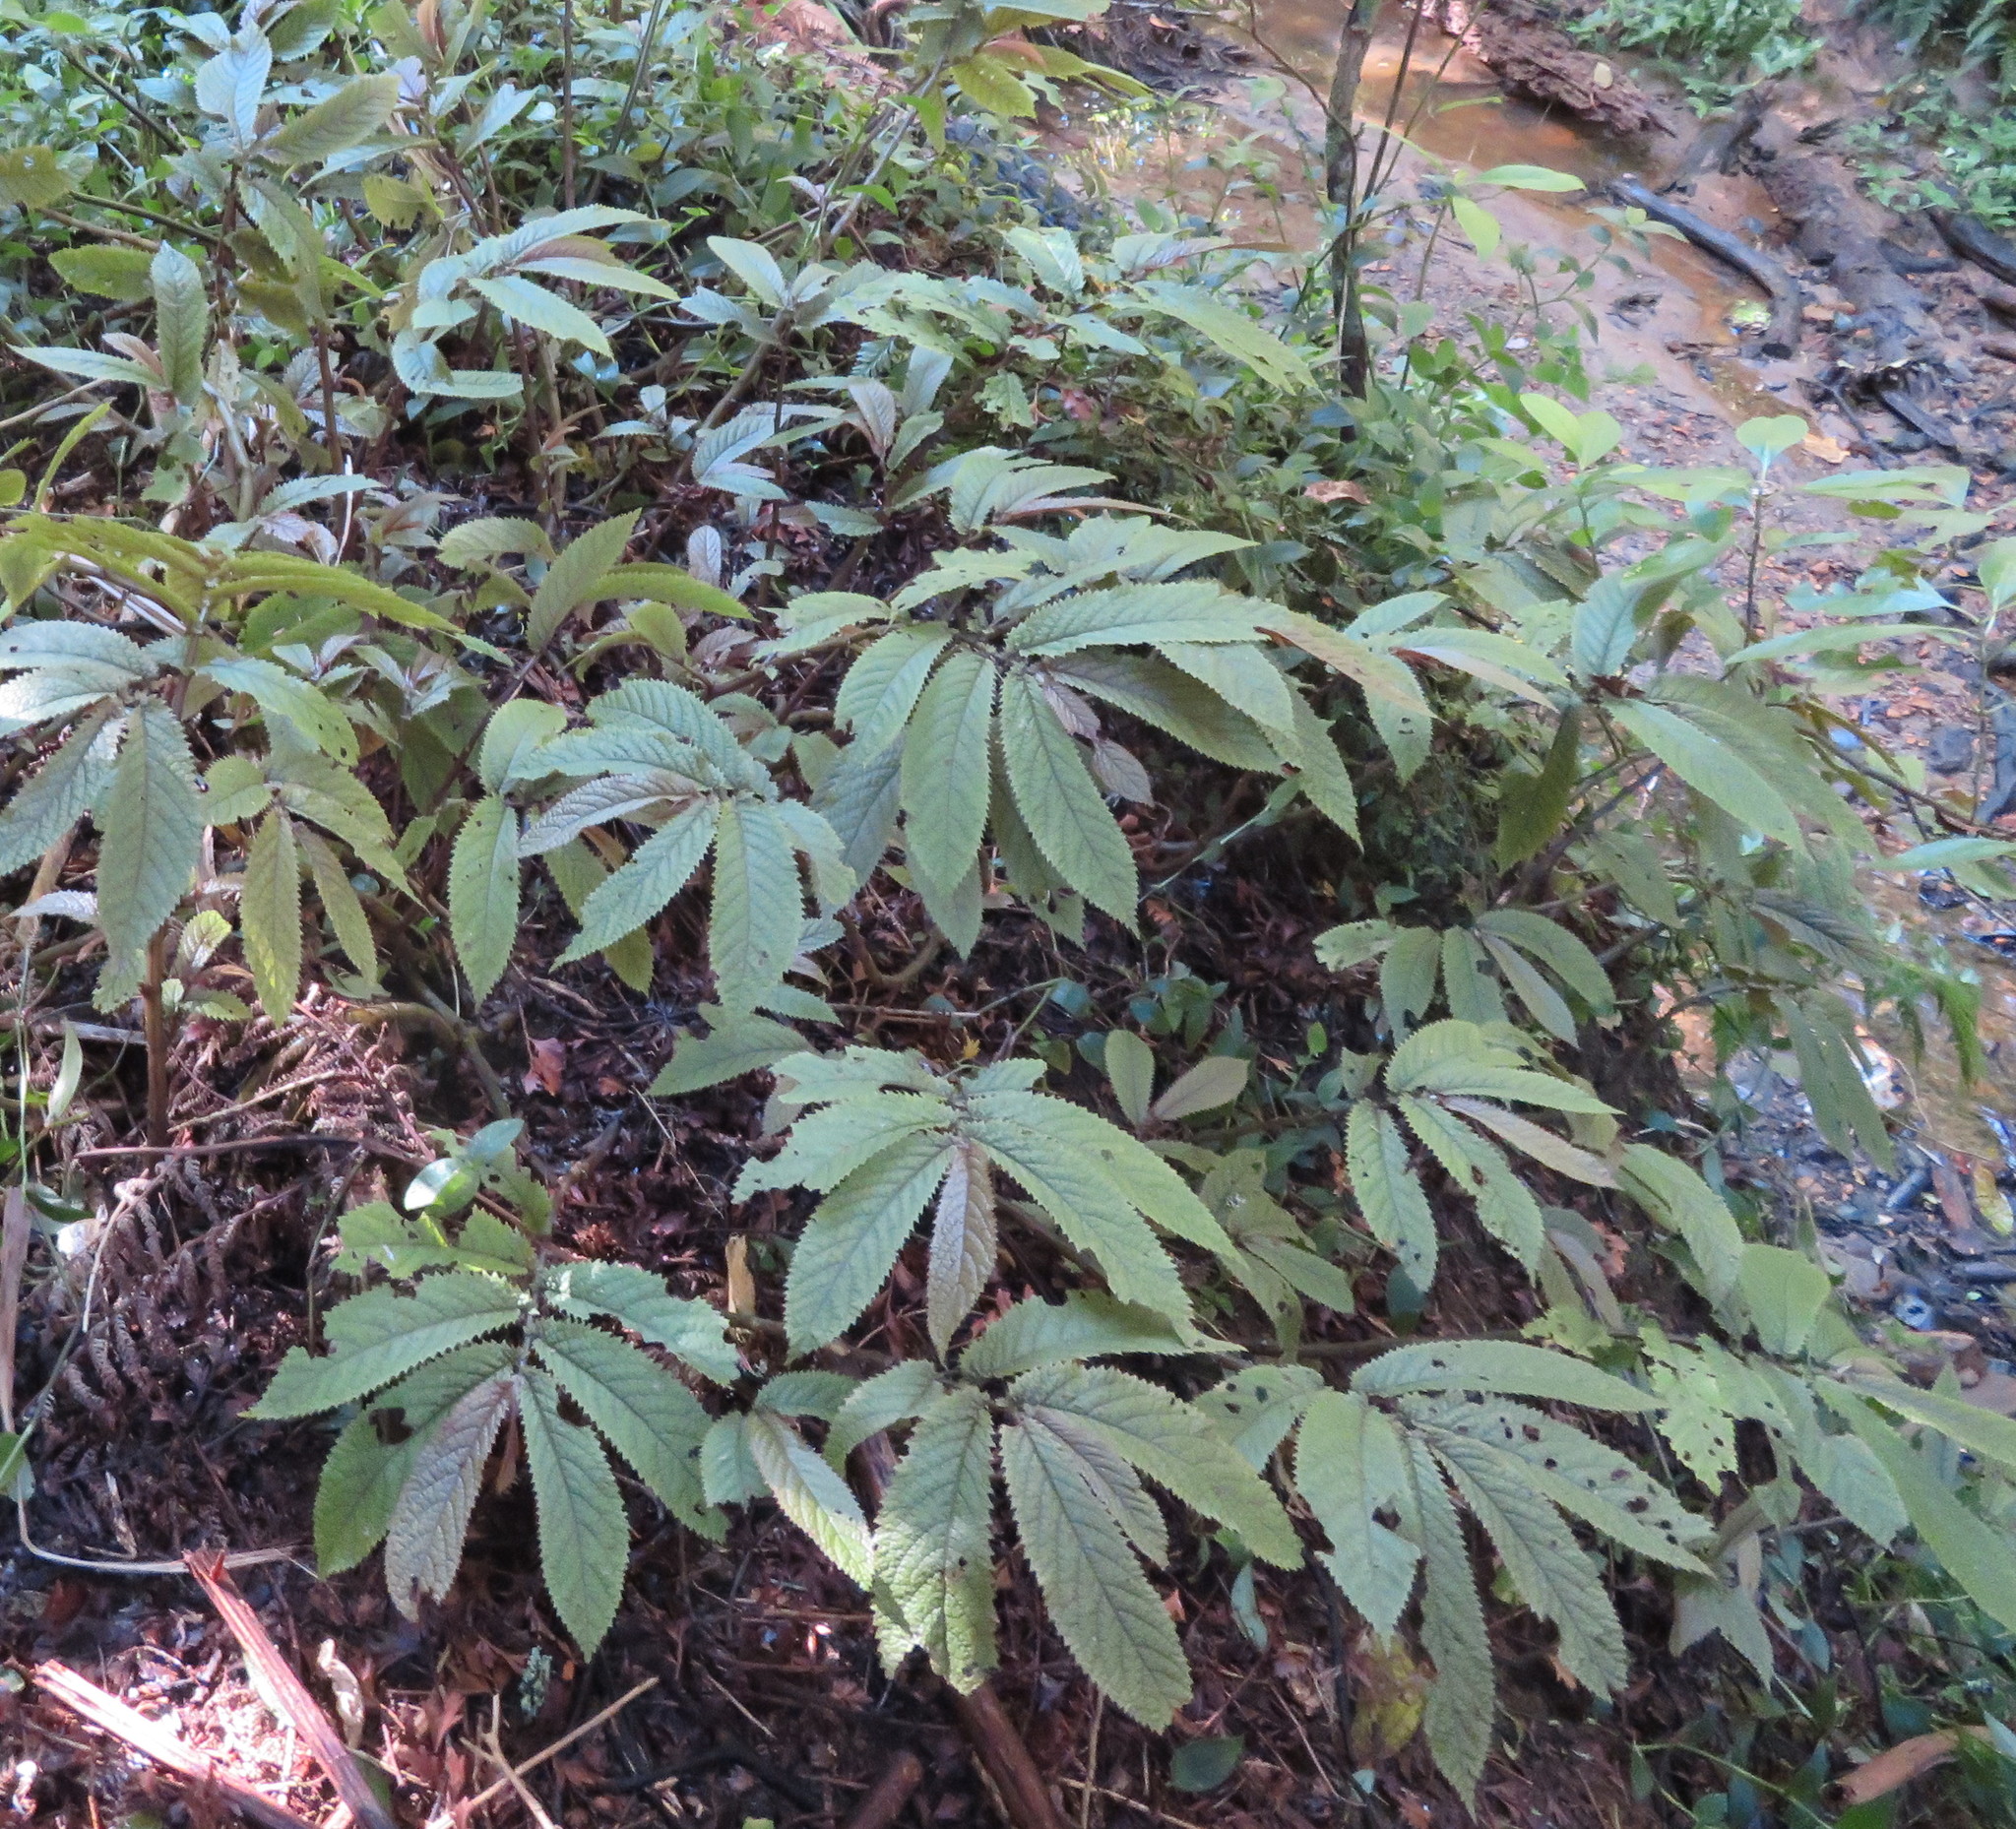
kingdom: Plantae
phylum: Tracheophyta
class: Liliopsida
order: Commelinales
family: Commelinaceae
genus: Tradescantia
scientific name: Tradescantia fluminensis
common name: Wandering-jew
